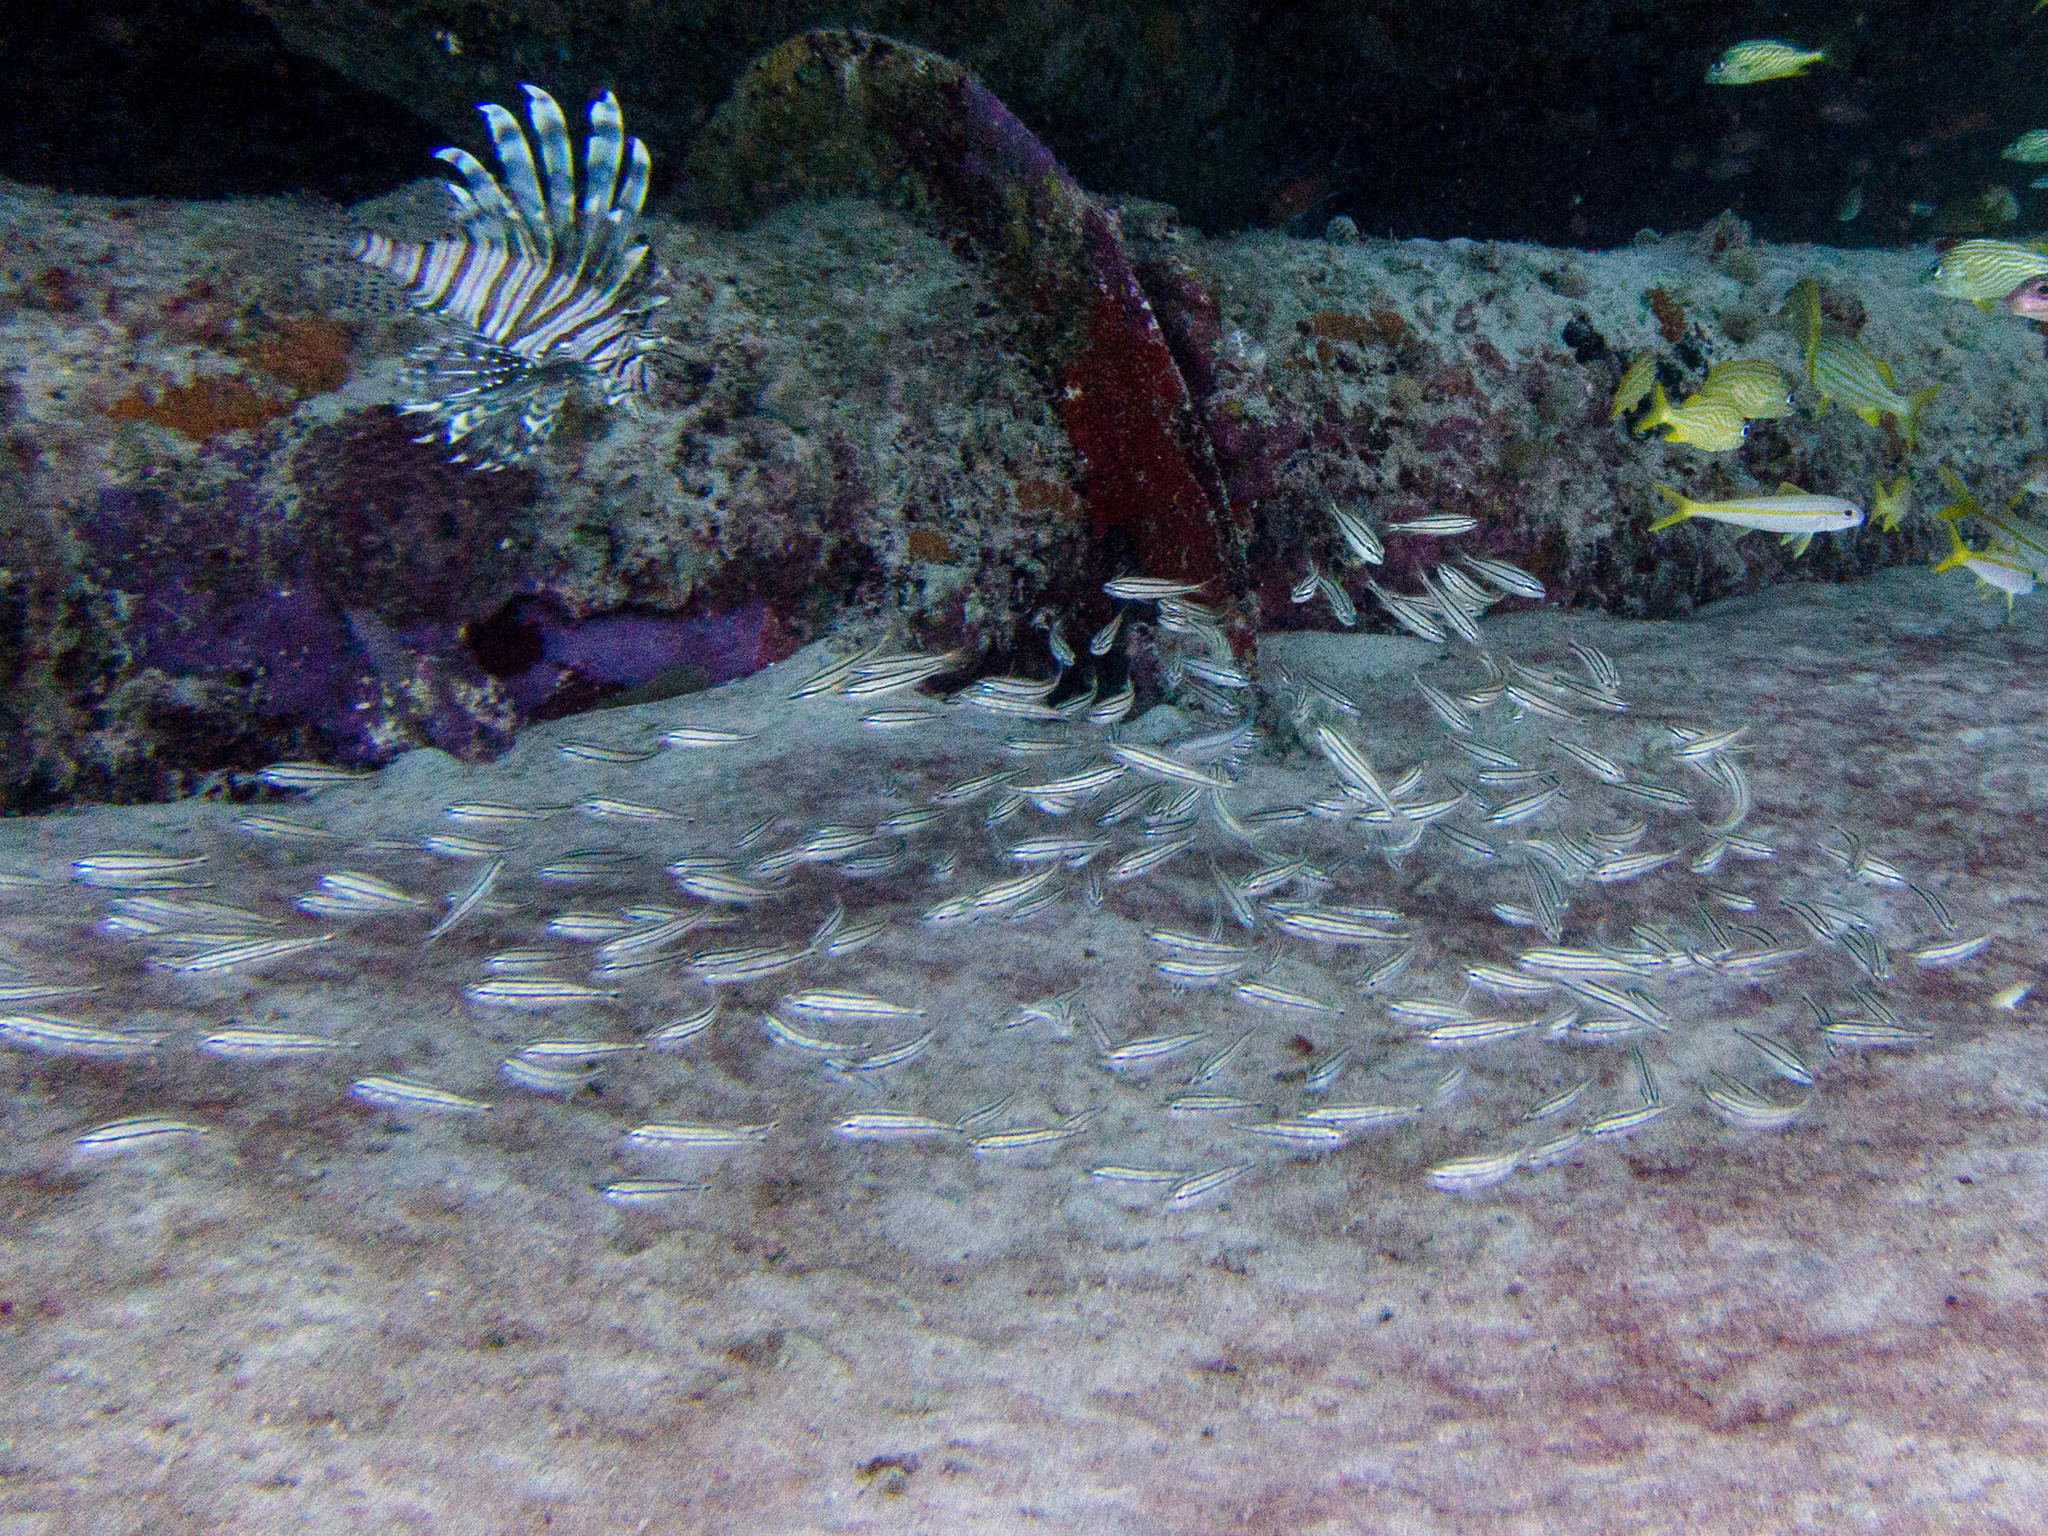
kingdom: Animalia
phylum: Chordata
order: Perciformes
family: Haemulidae
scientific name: Haemulidae
